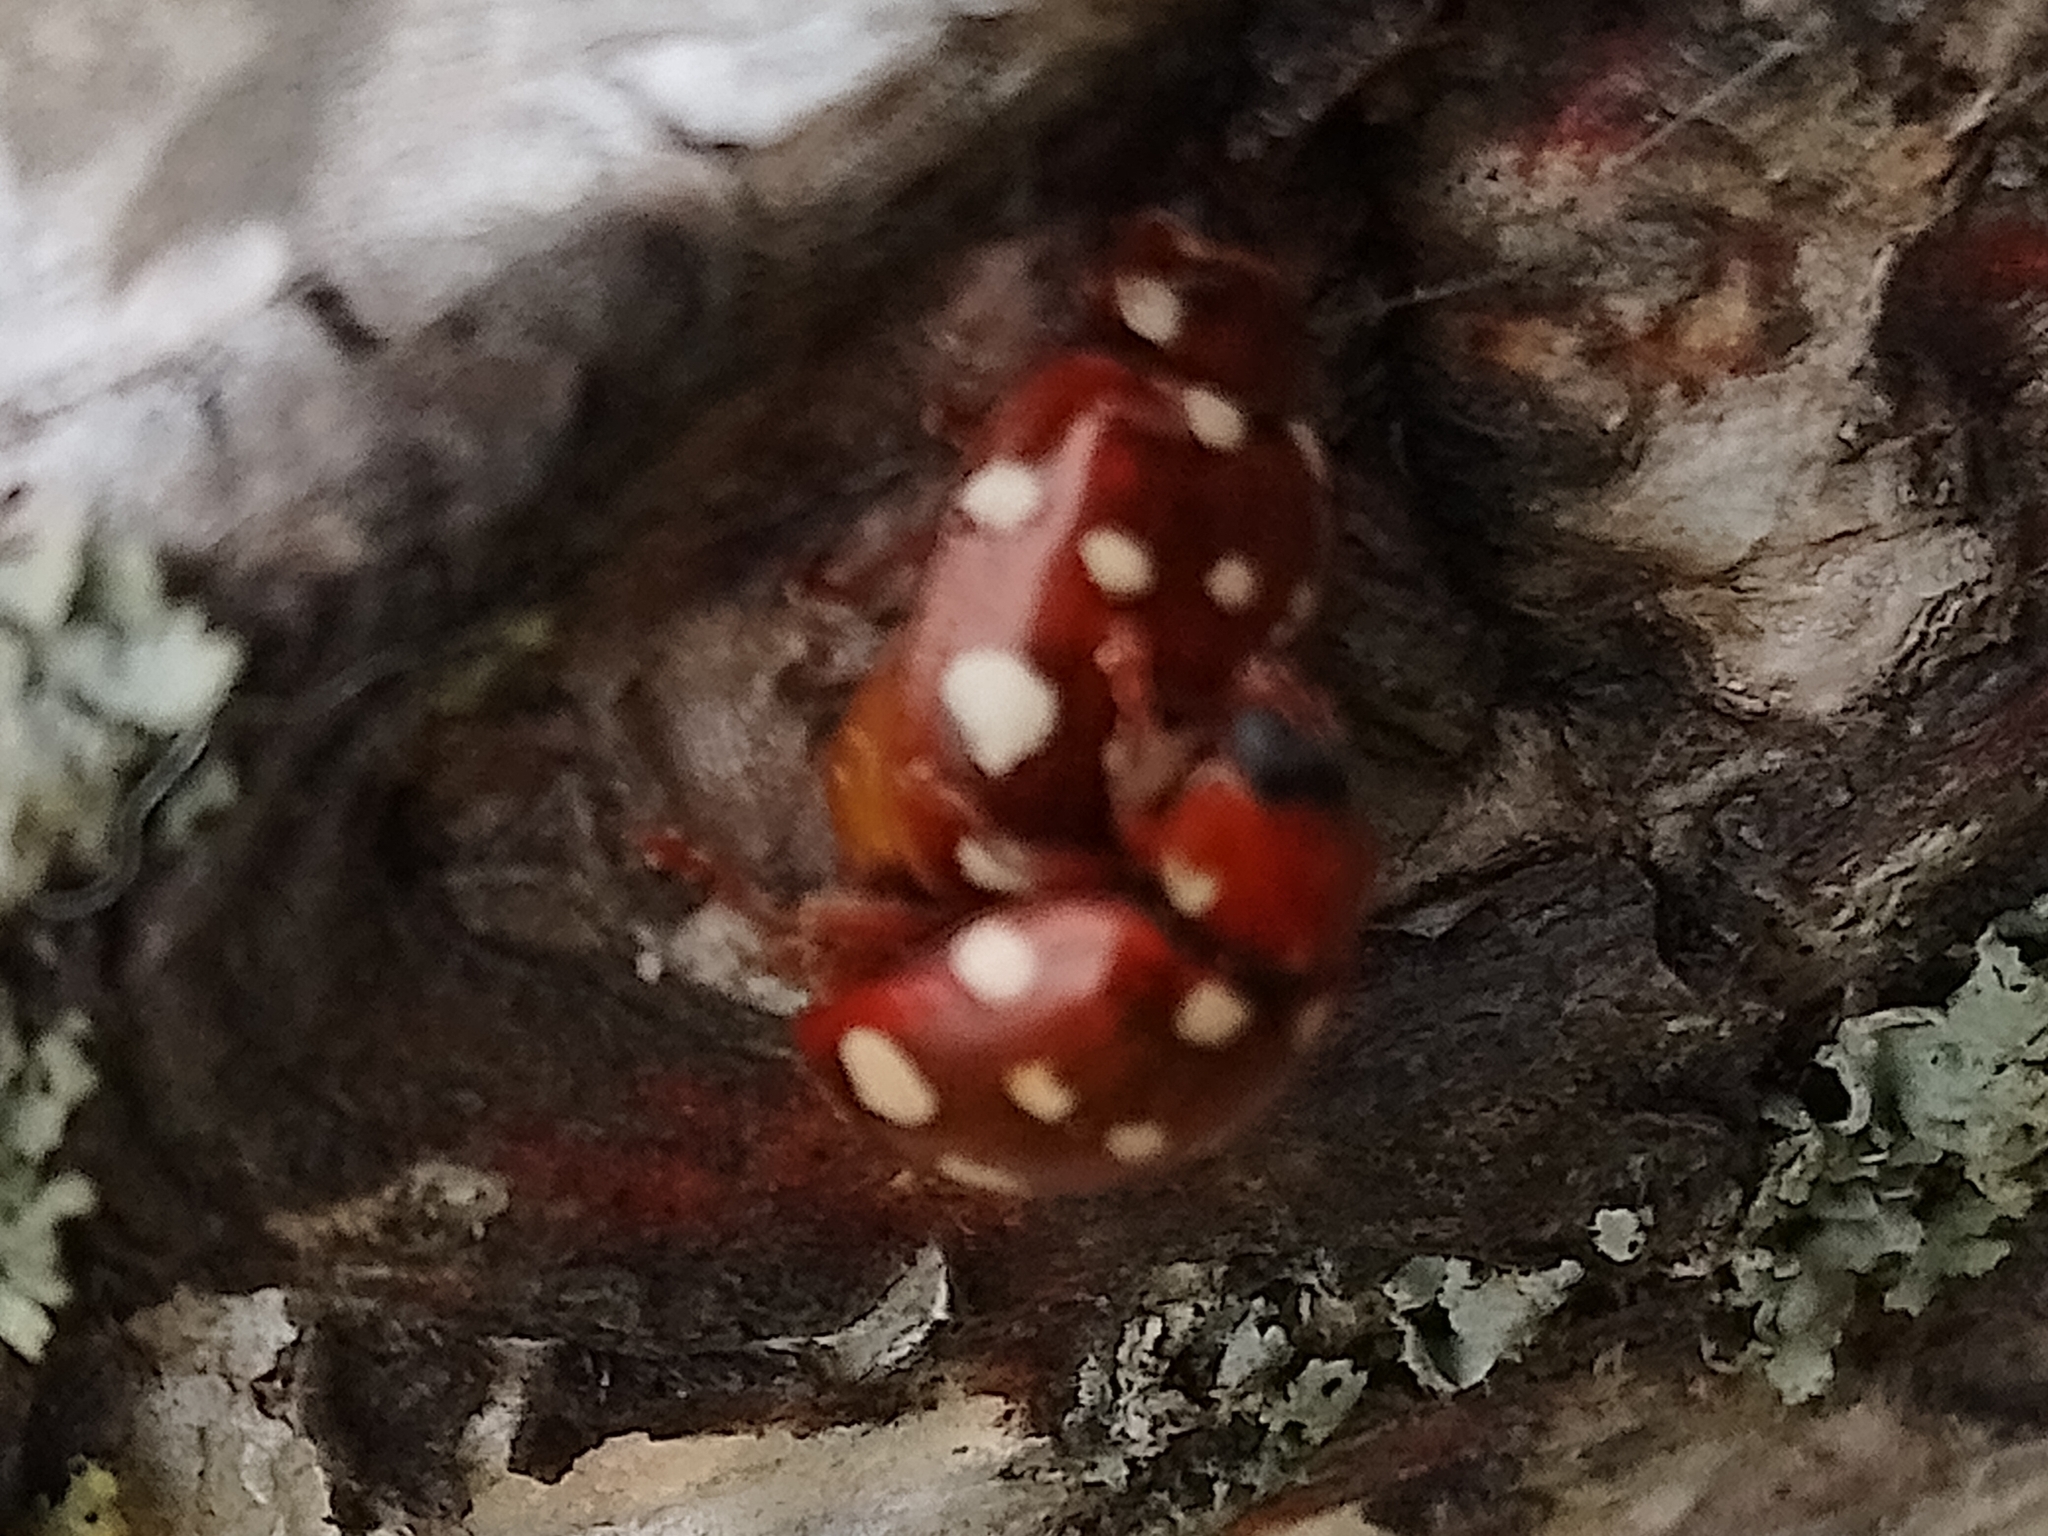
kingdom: Animalia
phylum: Arthropoda
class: Insecta
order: Coleoptera
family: Coccinellidae
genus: Calvia
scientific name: Calvia quatuordecimguttata
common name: Cream-spot ladybird
